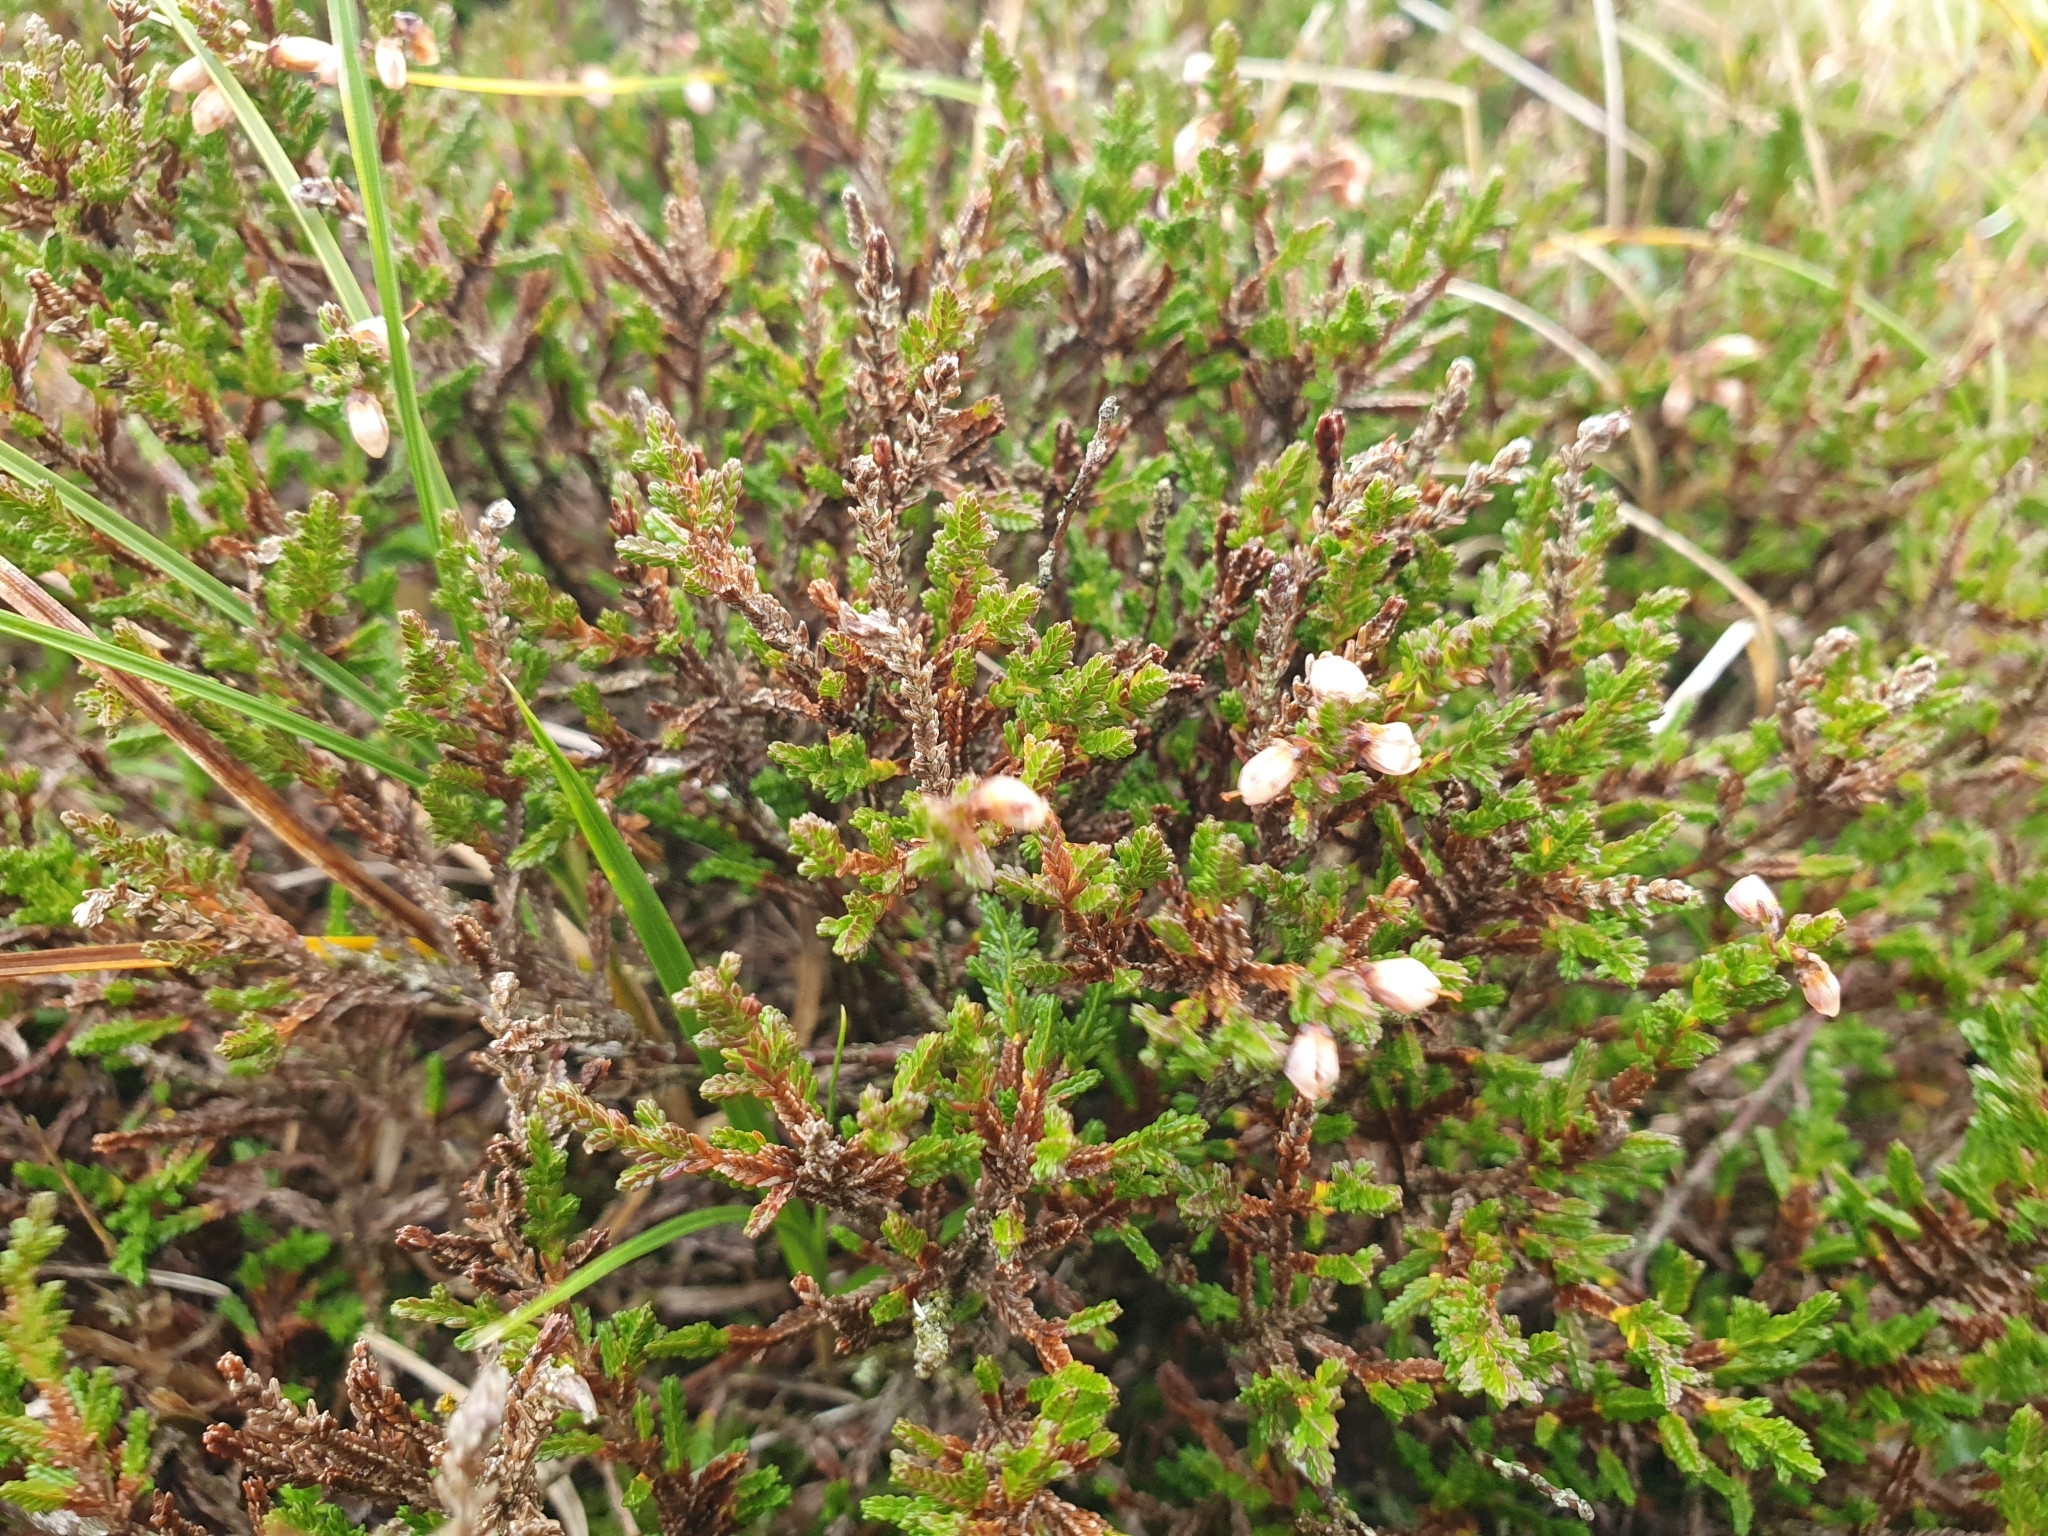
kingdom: Plantae
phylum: Tracheophyta
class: Magnoliopsida
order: Ericales
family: Ericaceae
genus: Calluna
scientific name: Calluna vulgaris
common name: Heather
